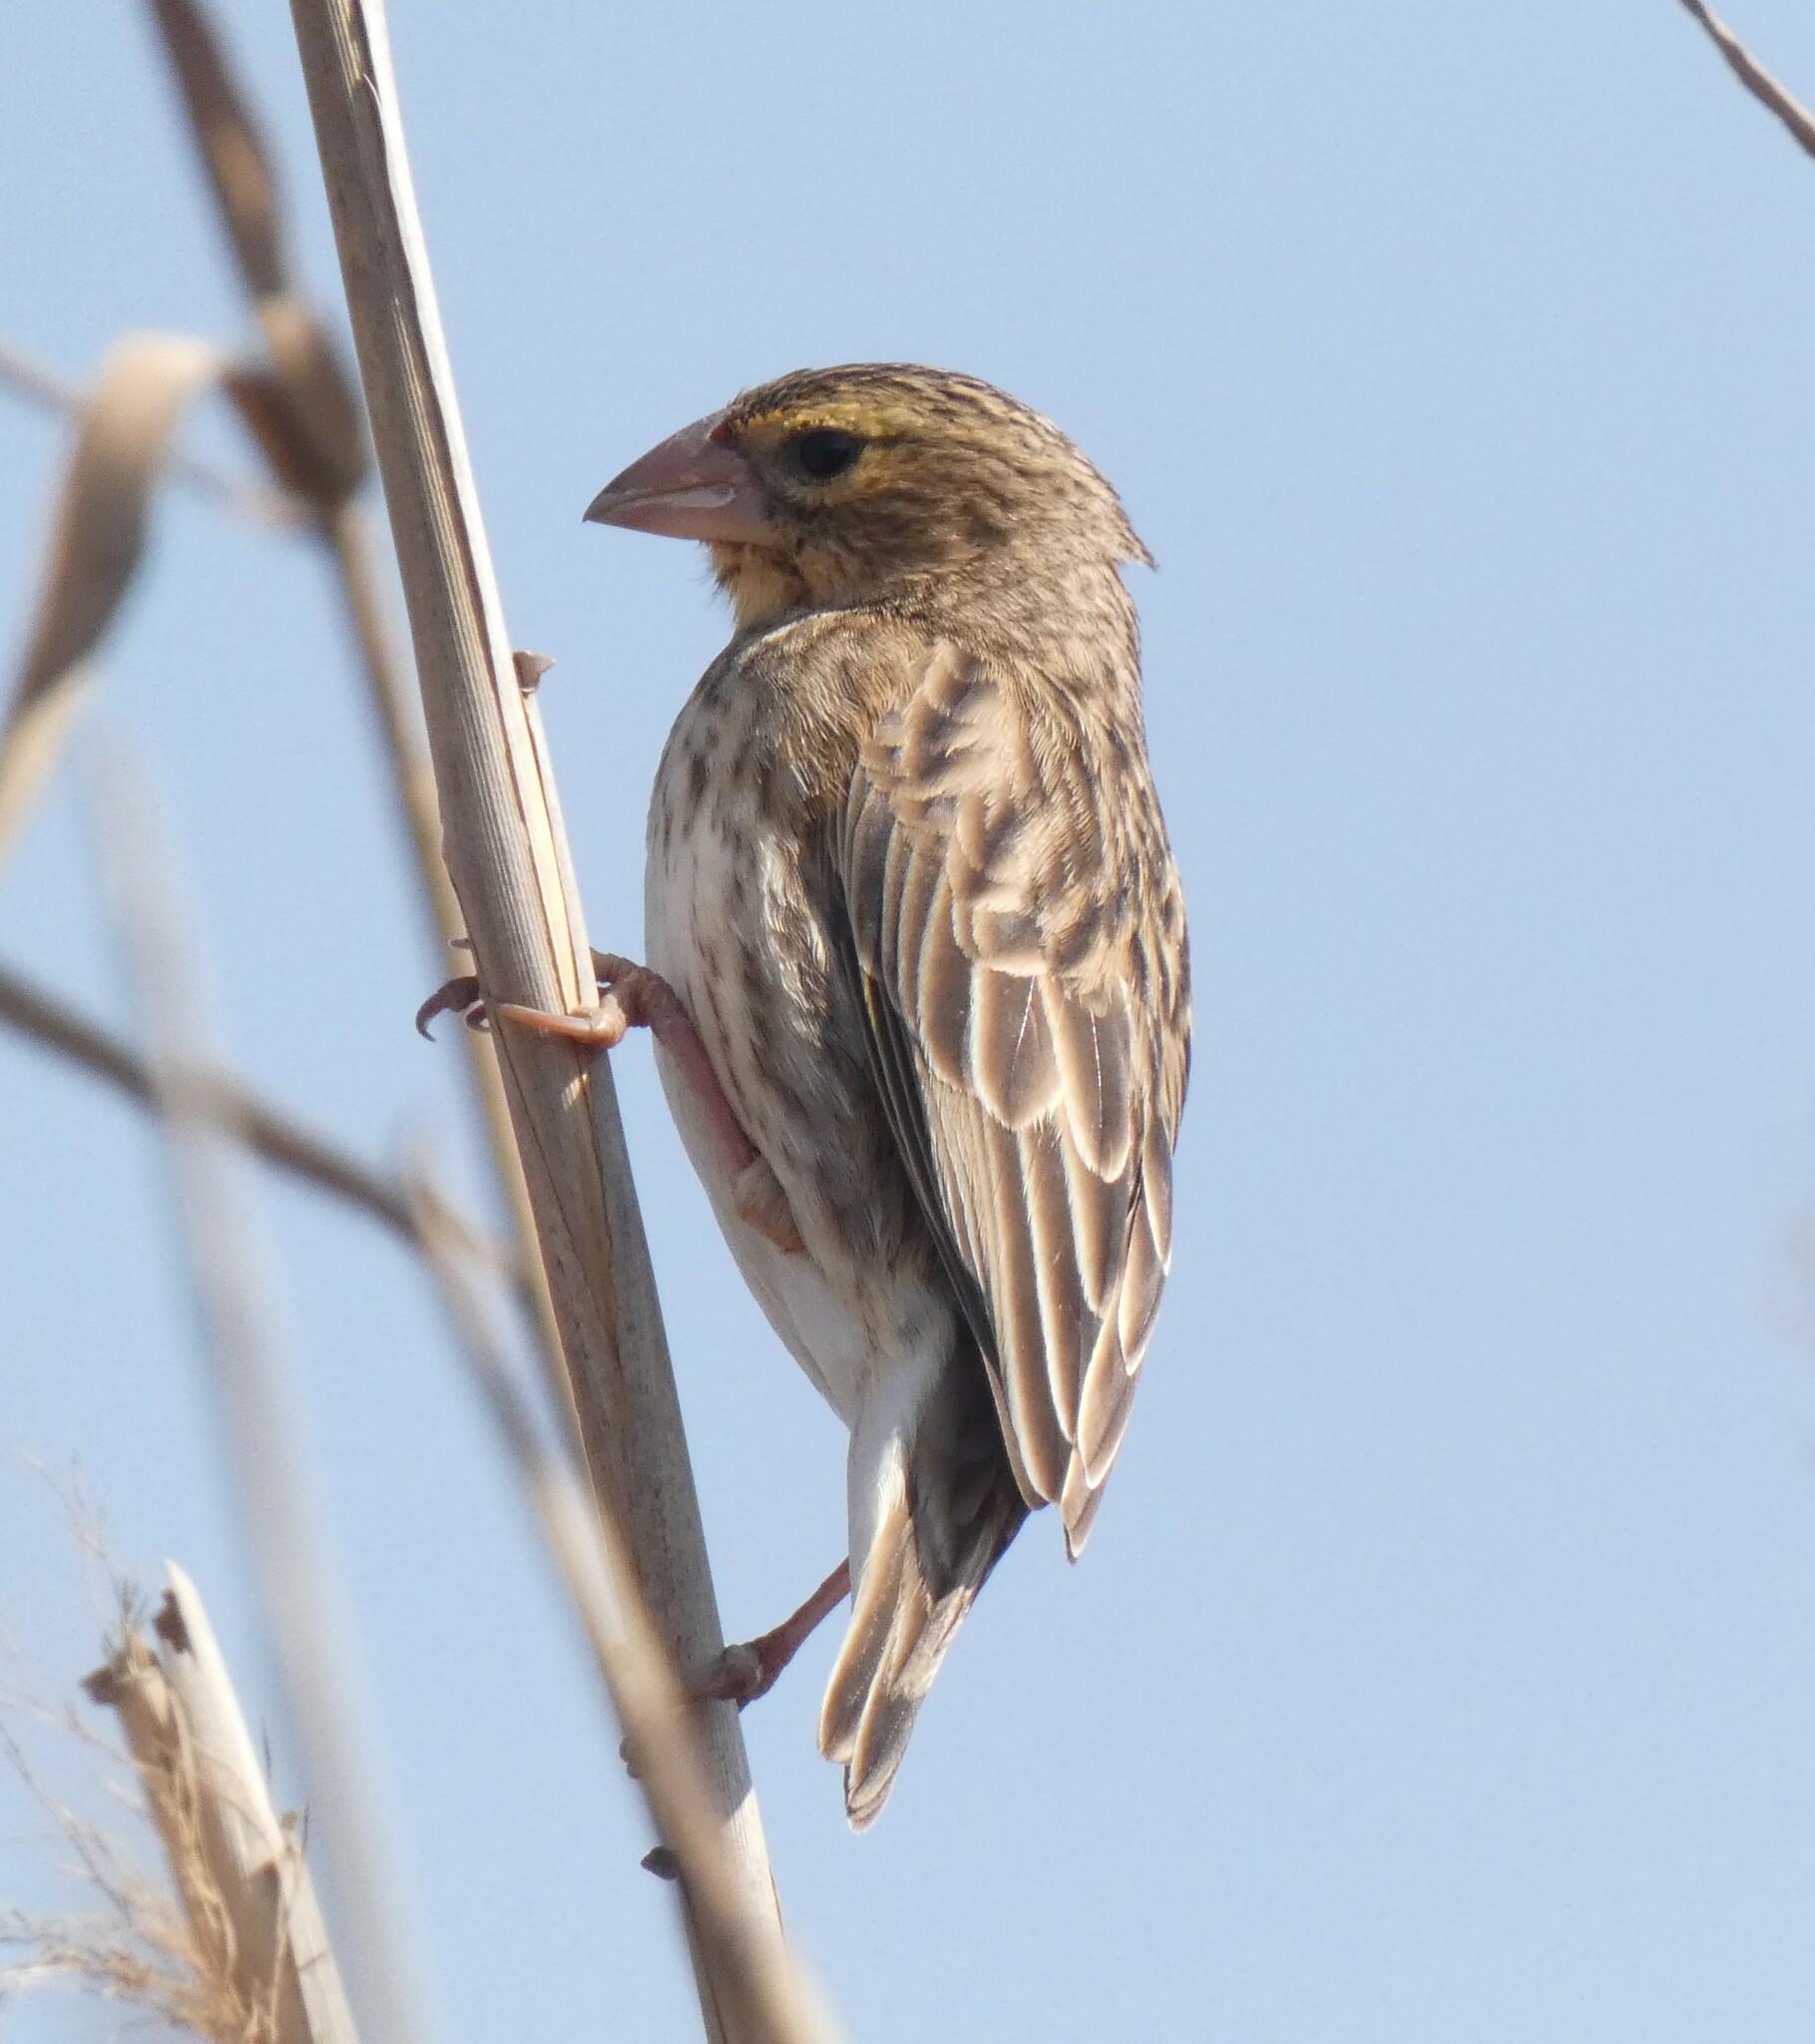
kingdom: Animalia
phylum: Chordata
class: Aves
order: Passeriformes
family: Ploceidae
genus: Euplectes
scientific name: Euplectes orix
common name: Southern red bishop
